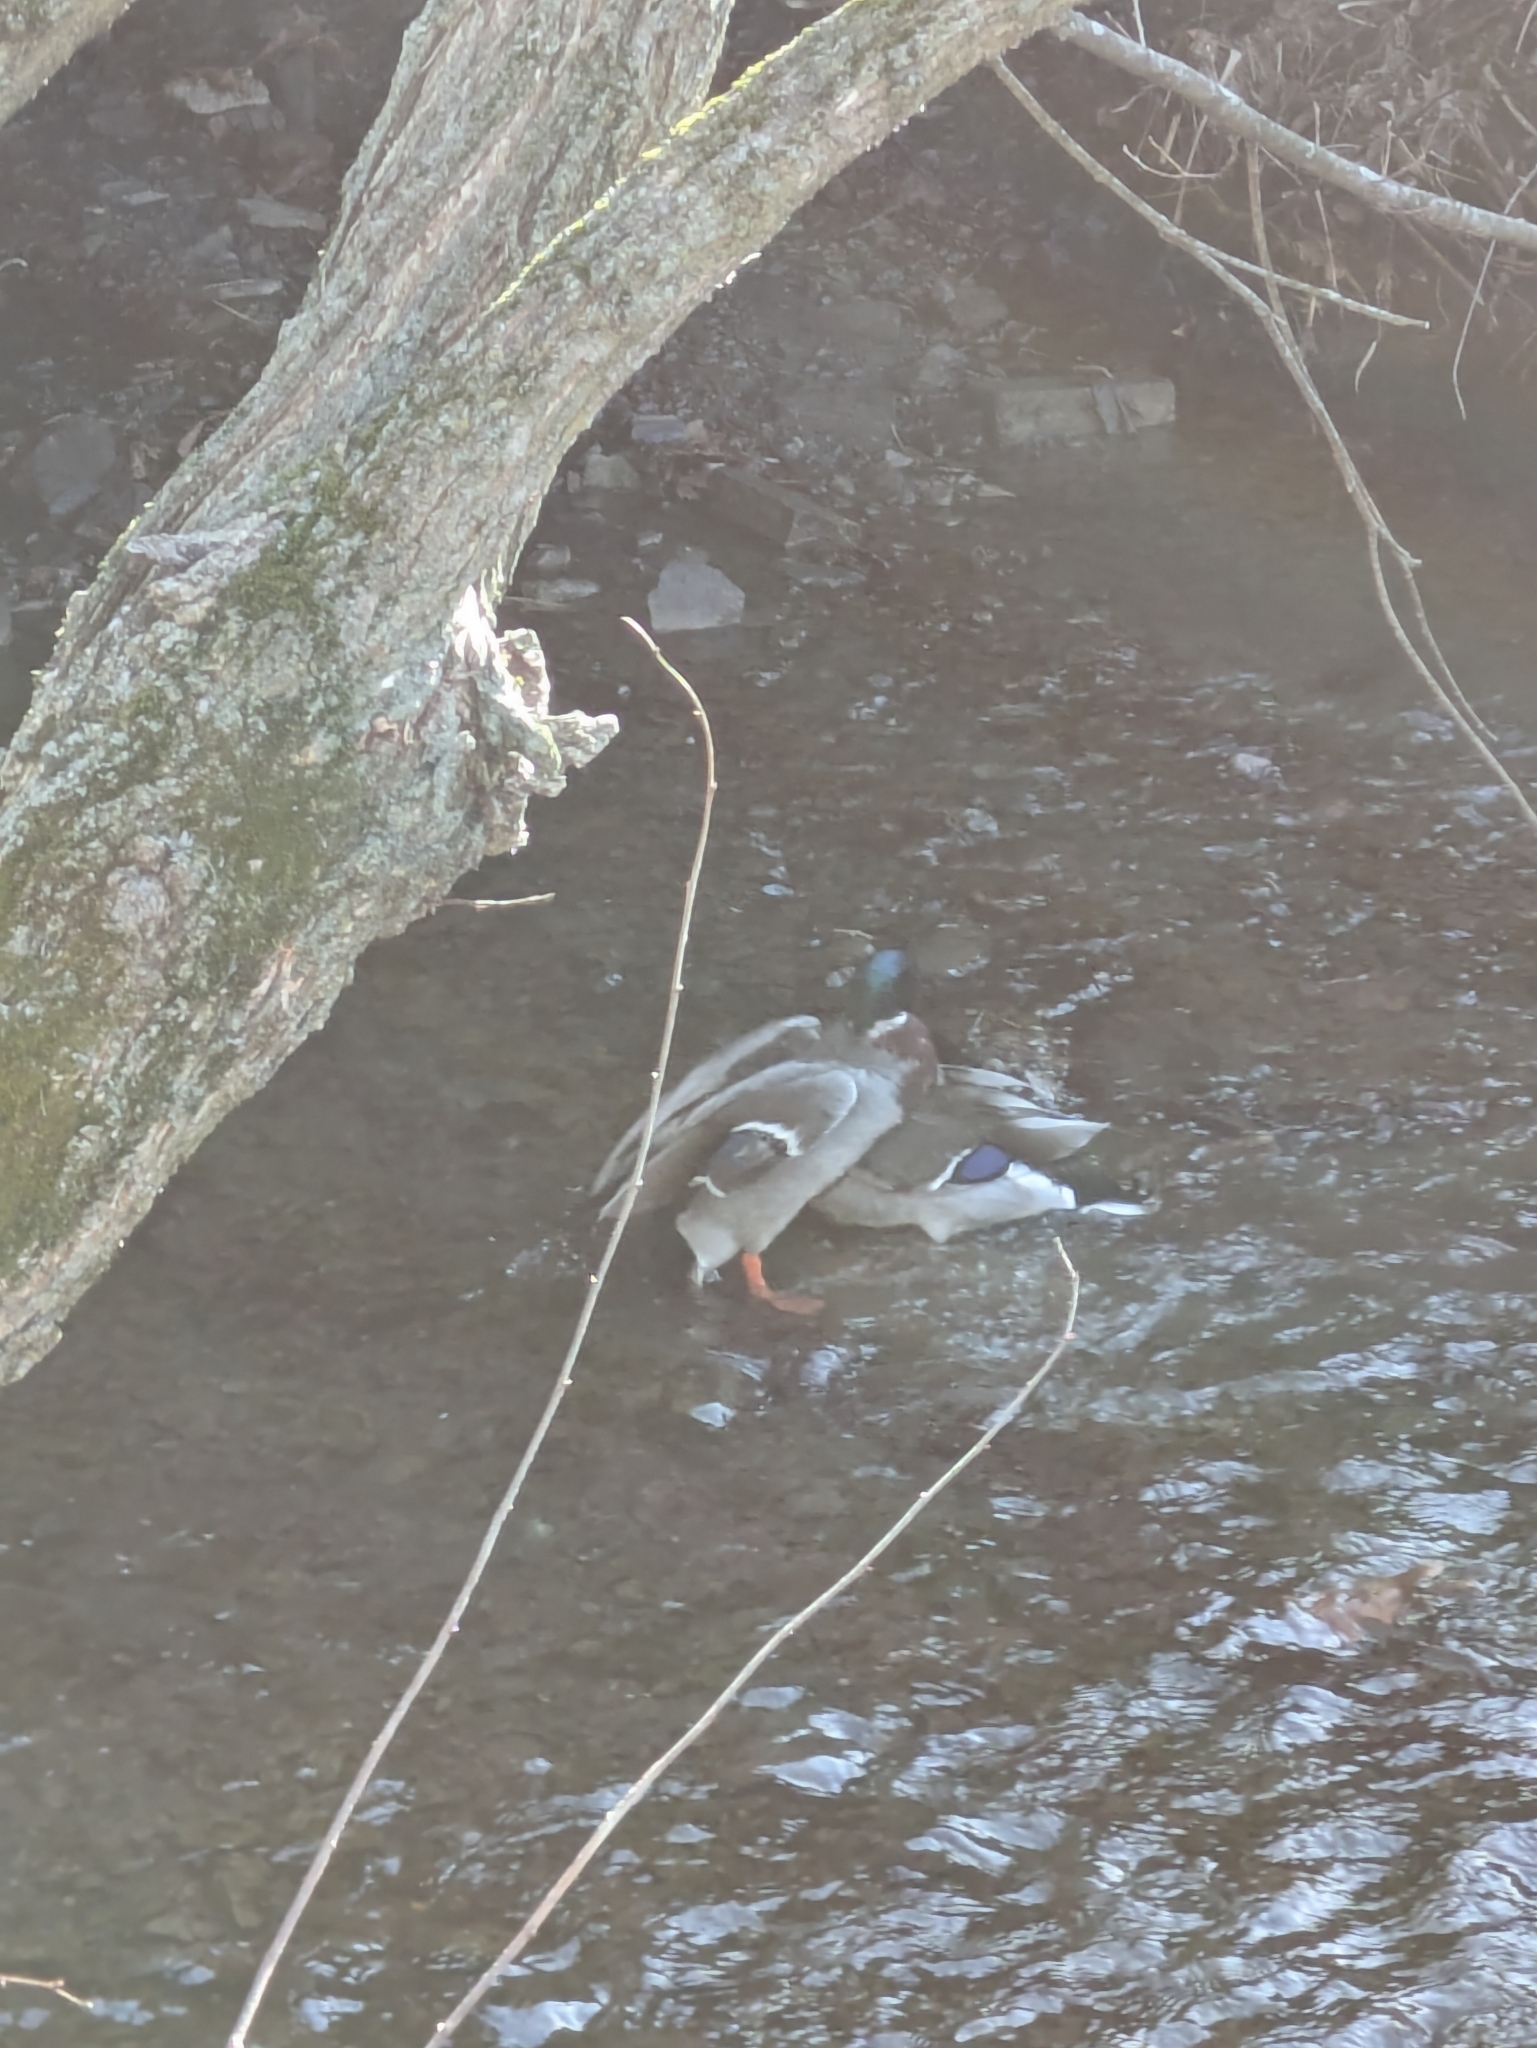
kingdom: Animalia
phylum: Chordata
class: Aves
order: Anseriformes
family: Anatidae
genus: Anas
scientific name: Anas platyrhynchos
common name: Mallard
